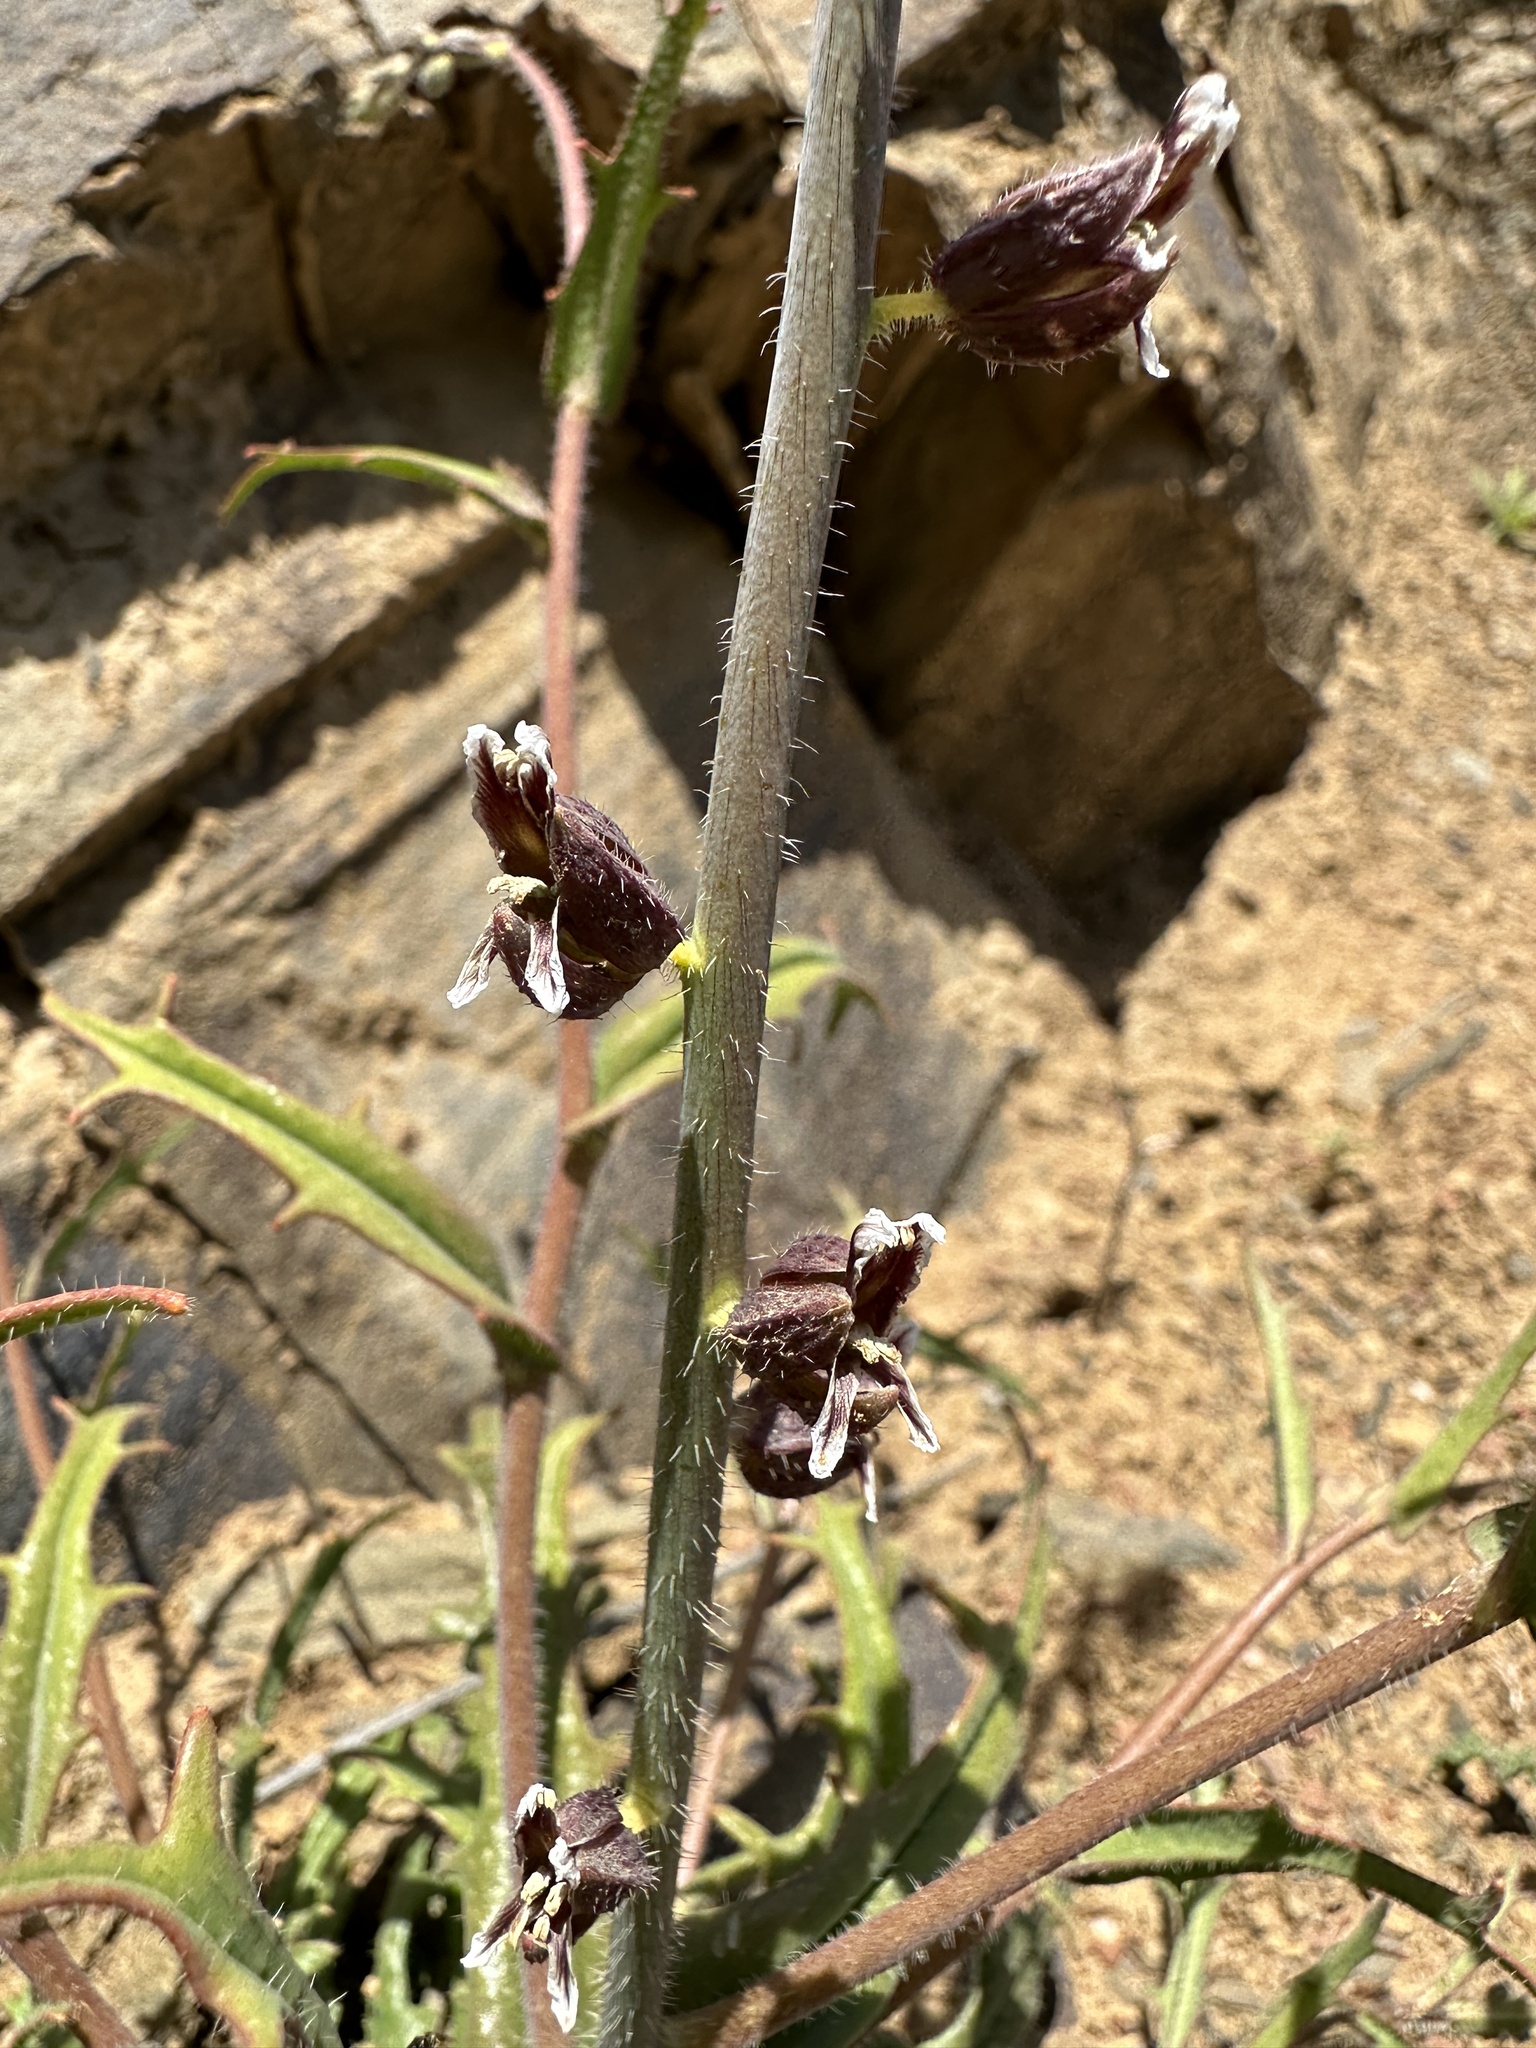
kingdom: Plantae
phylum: Tracheophyta
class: Magnoliopsida
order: Brassicales
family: Brassicaceae
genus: Streptanthus
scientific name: Streptanthus insignis
